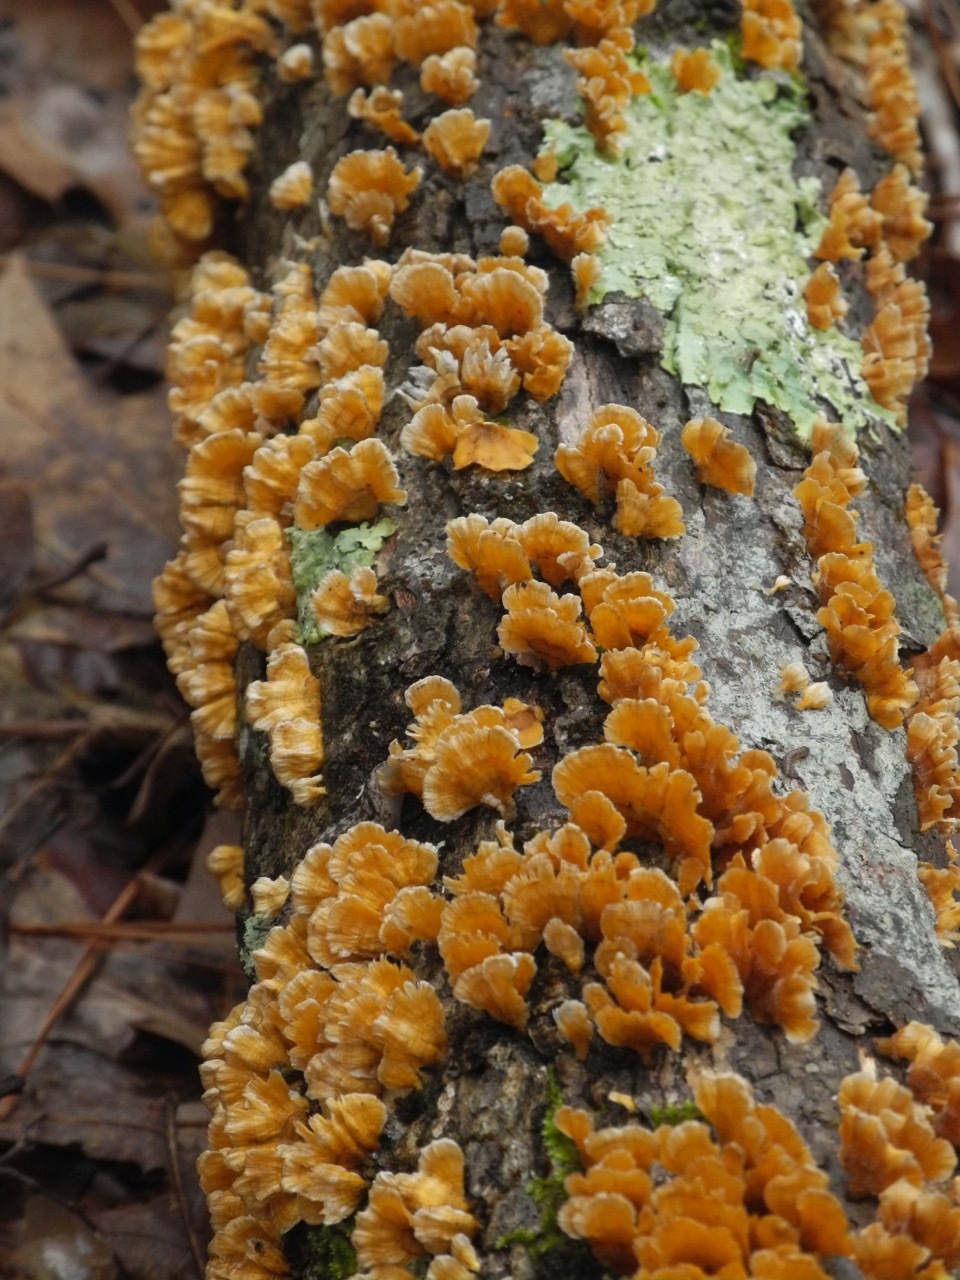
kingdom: Fungi
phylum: Basidiomycota
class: Agaricomycetes
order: Russulales
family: Stereaceae
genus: Stereum
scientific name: Stereum complicatum
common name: Crowded parchment
